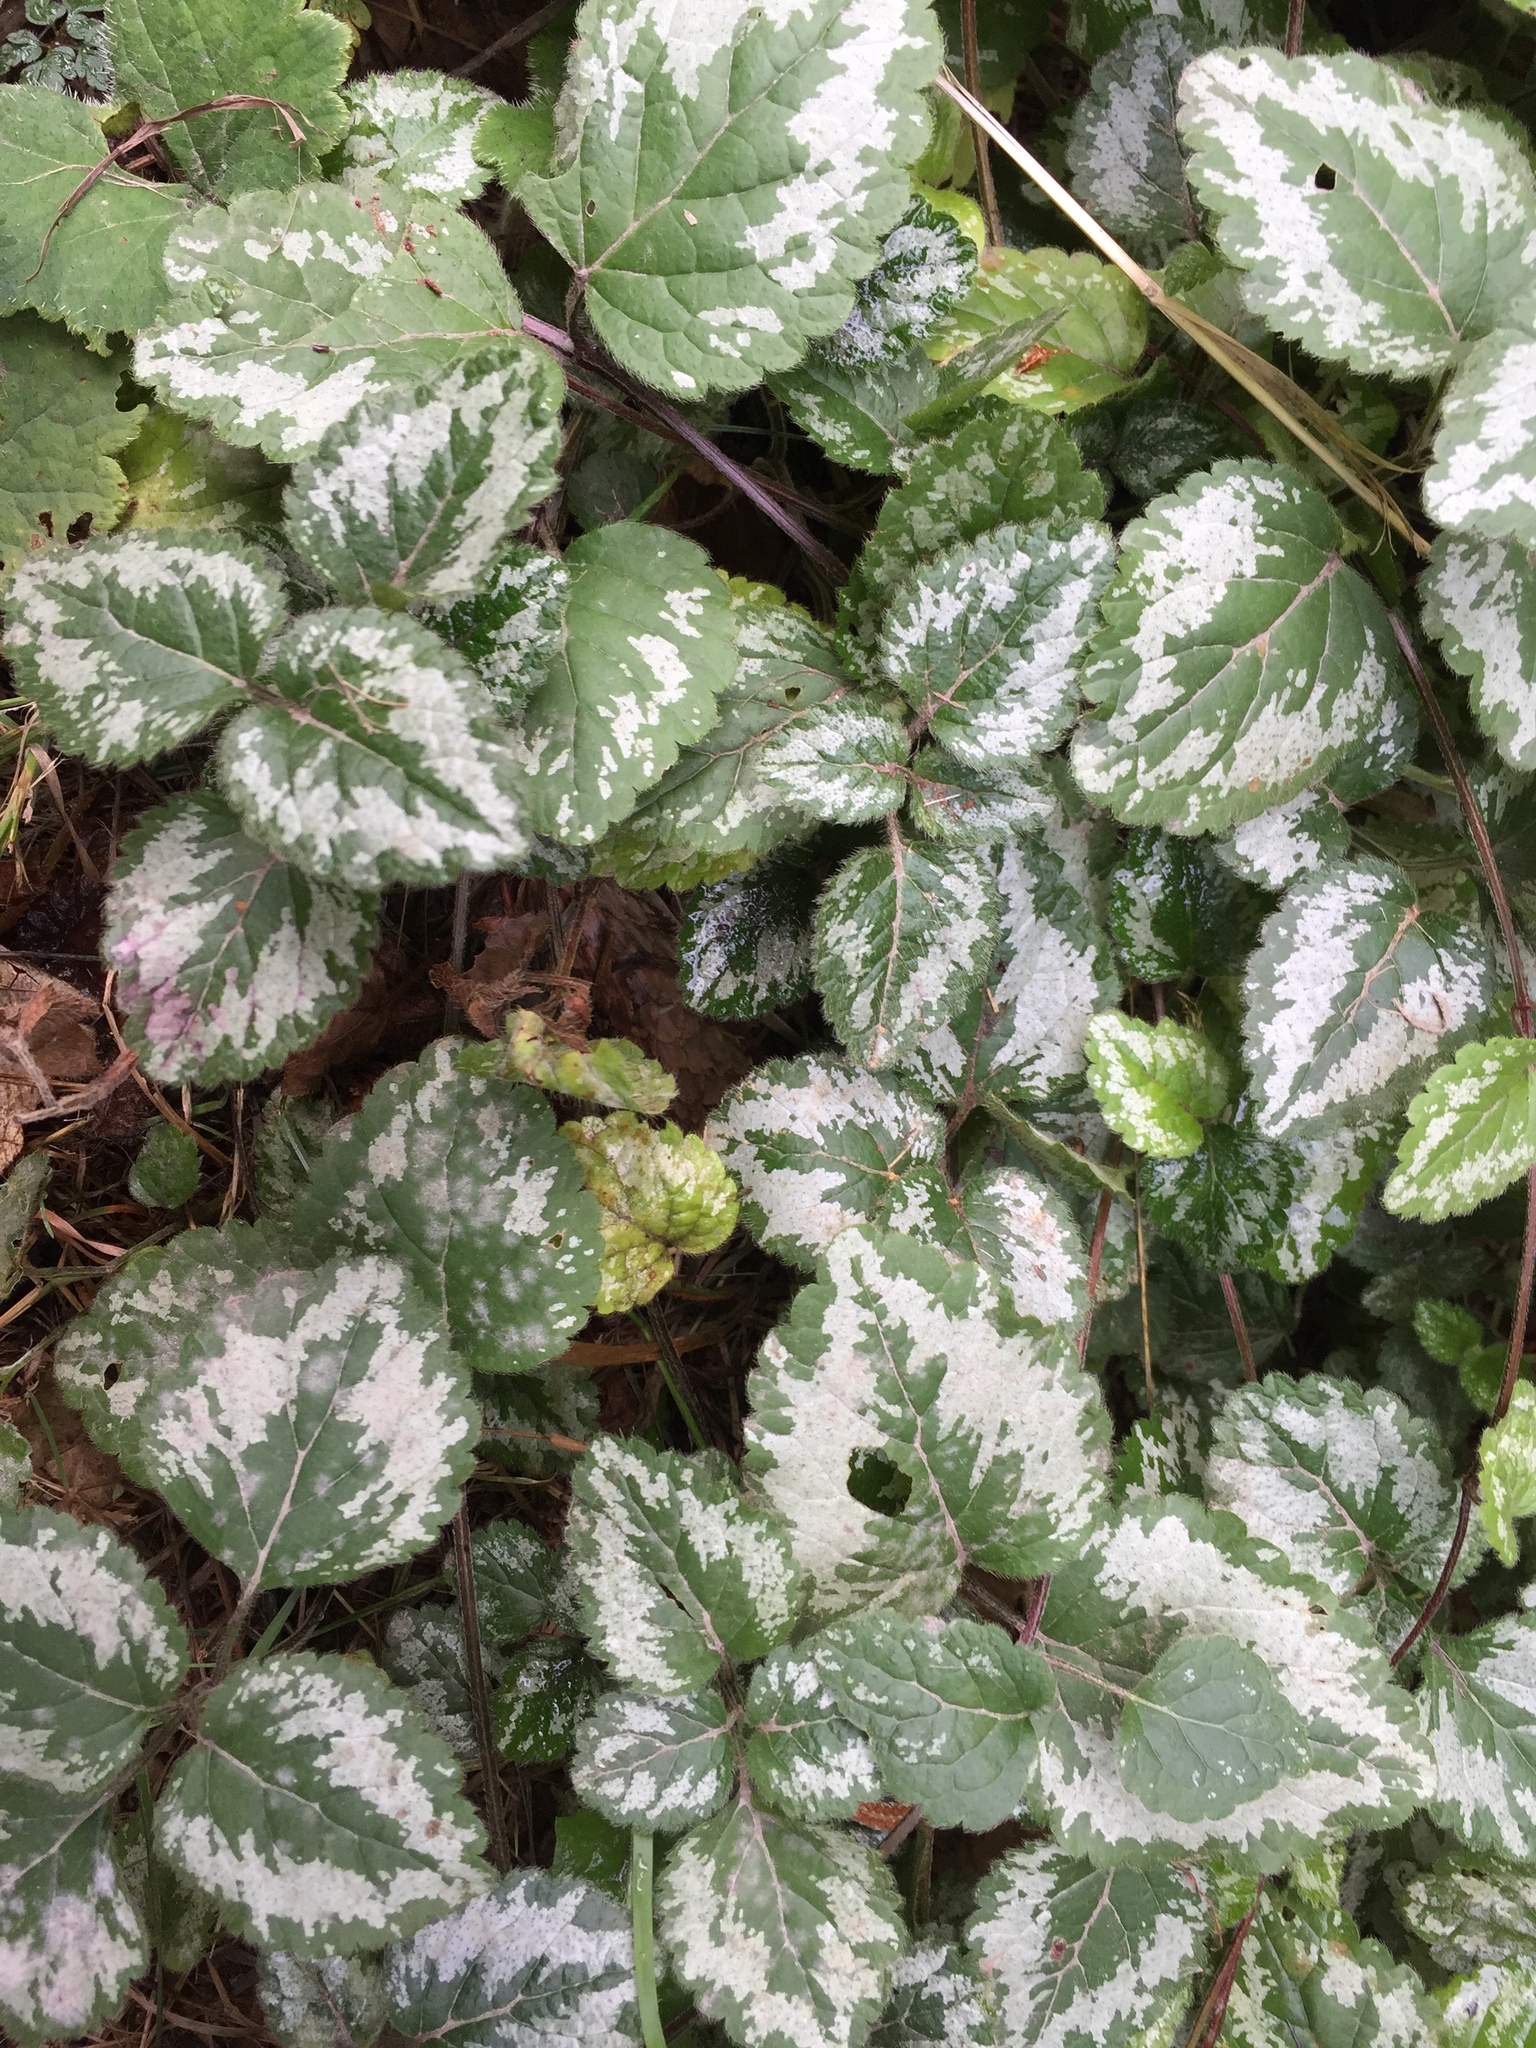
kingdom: Plantae
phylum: Tracheophyta
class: Magnoliopsida
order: Lamiales
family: Lamiaceae
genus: Lamium
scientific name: Lamium galeobdolon
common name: Yellow archangel
